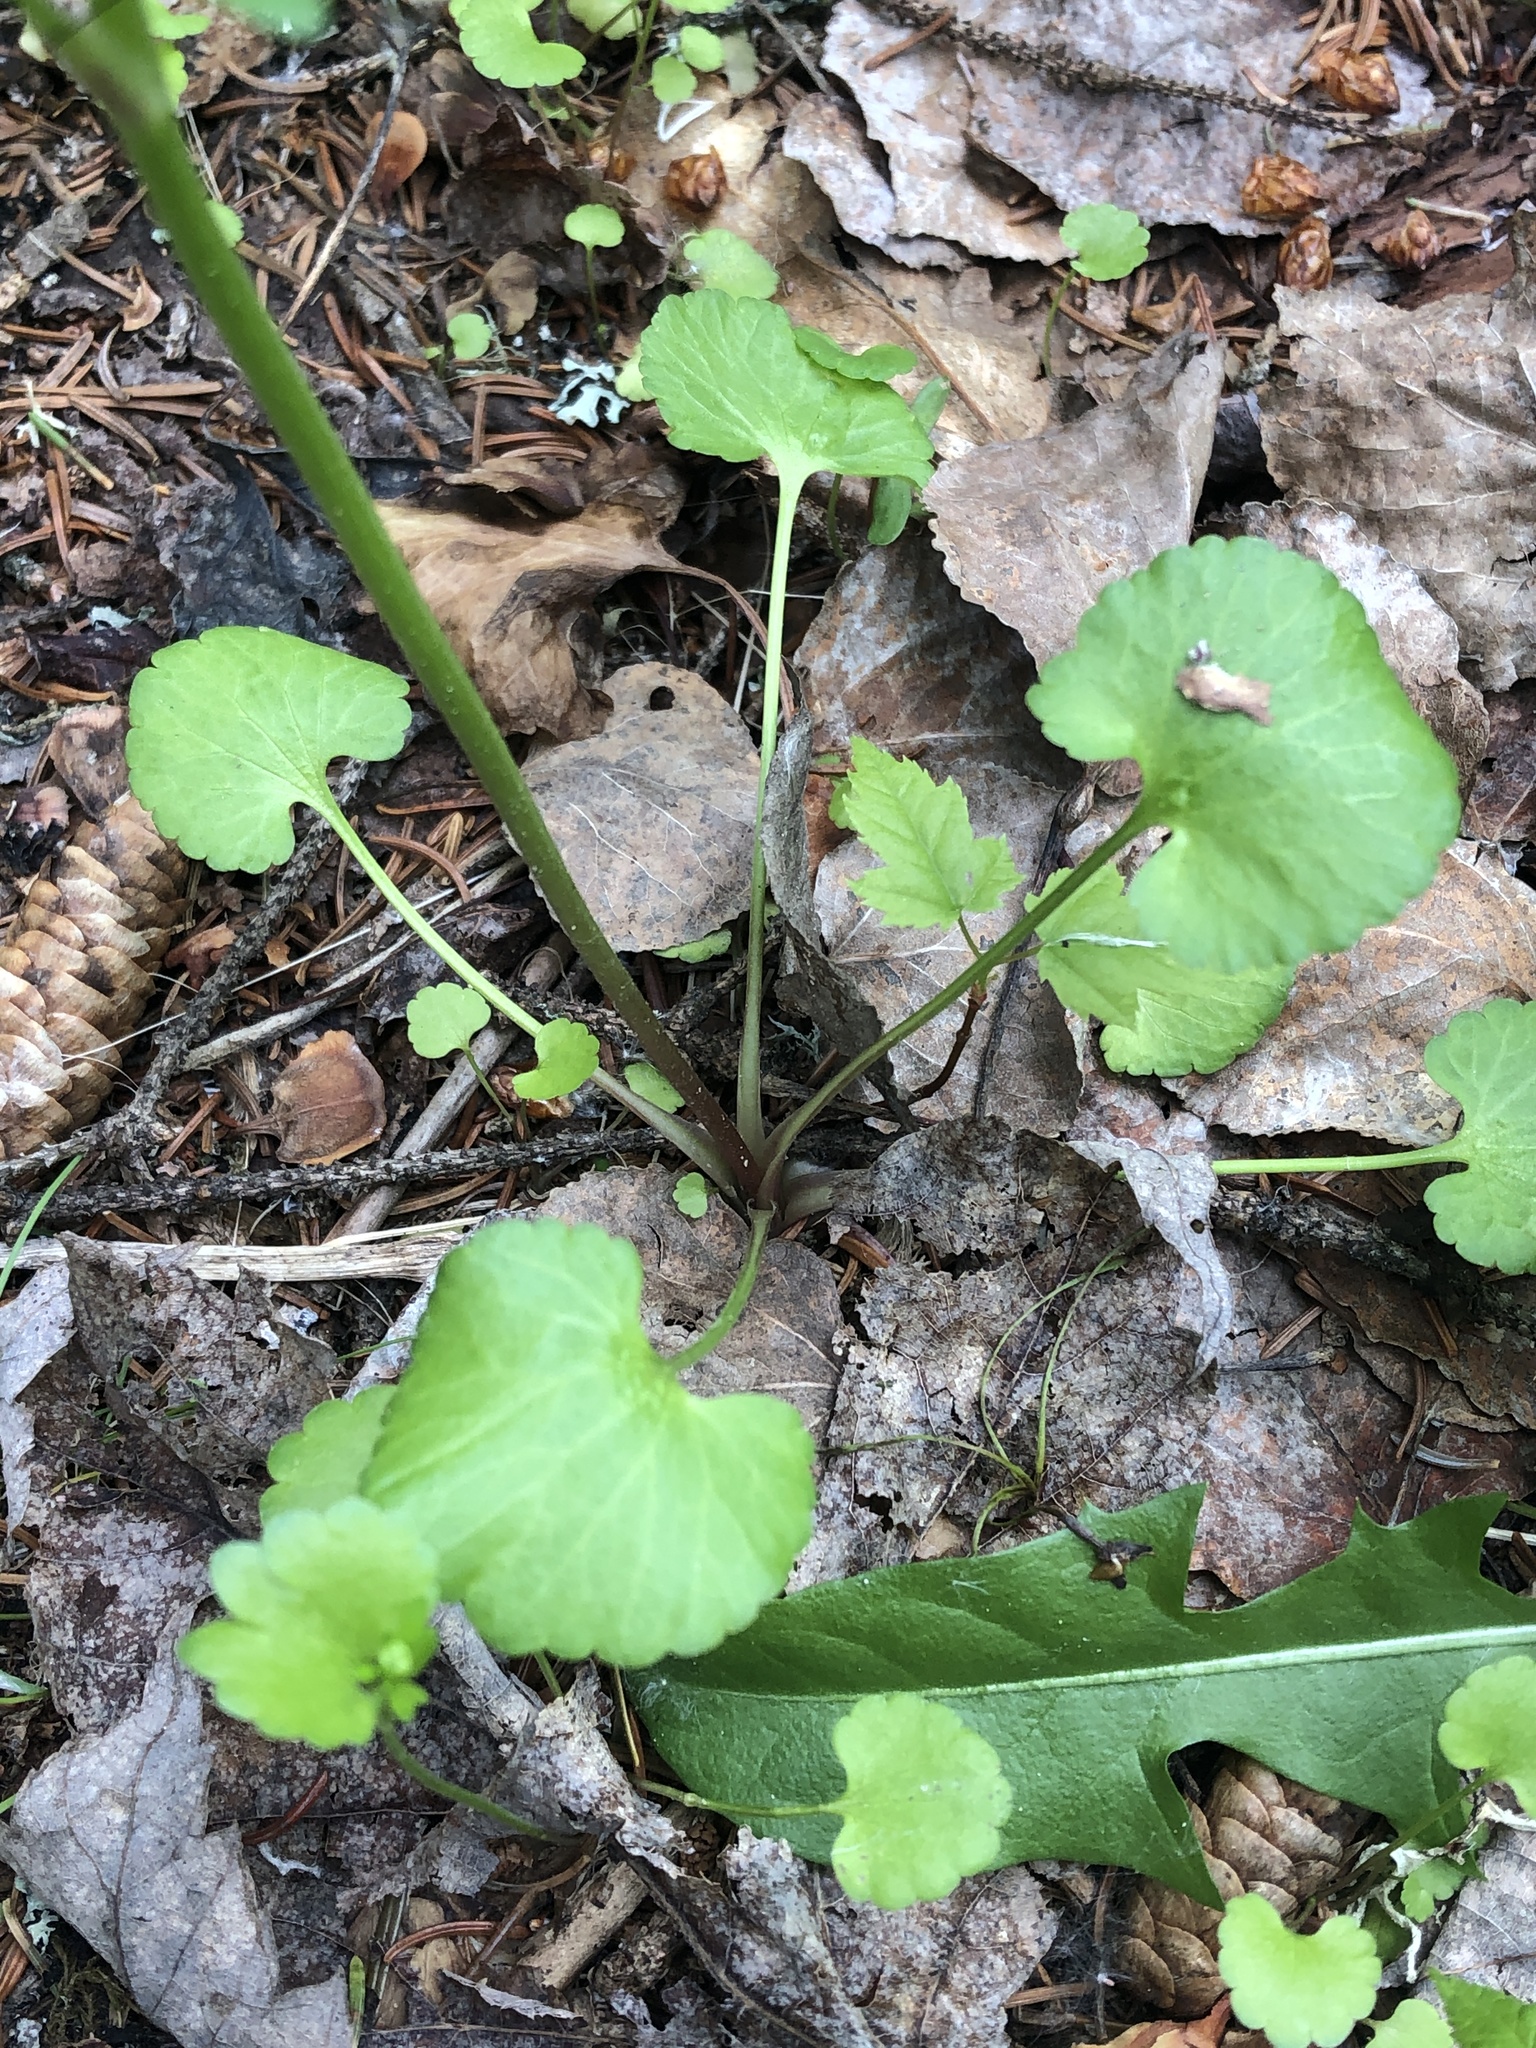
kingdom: Plantae
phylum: Tracheophyta
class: Magnoliopsida
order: Ranunculales
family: Ranunculaceae
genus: Ranunculus
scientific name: Ranunculus abortivus
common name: Early wood buttercup
